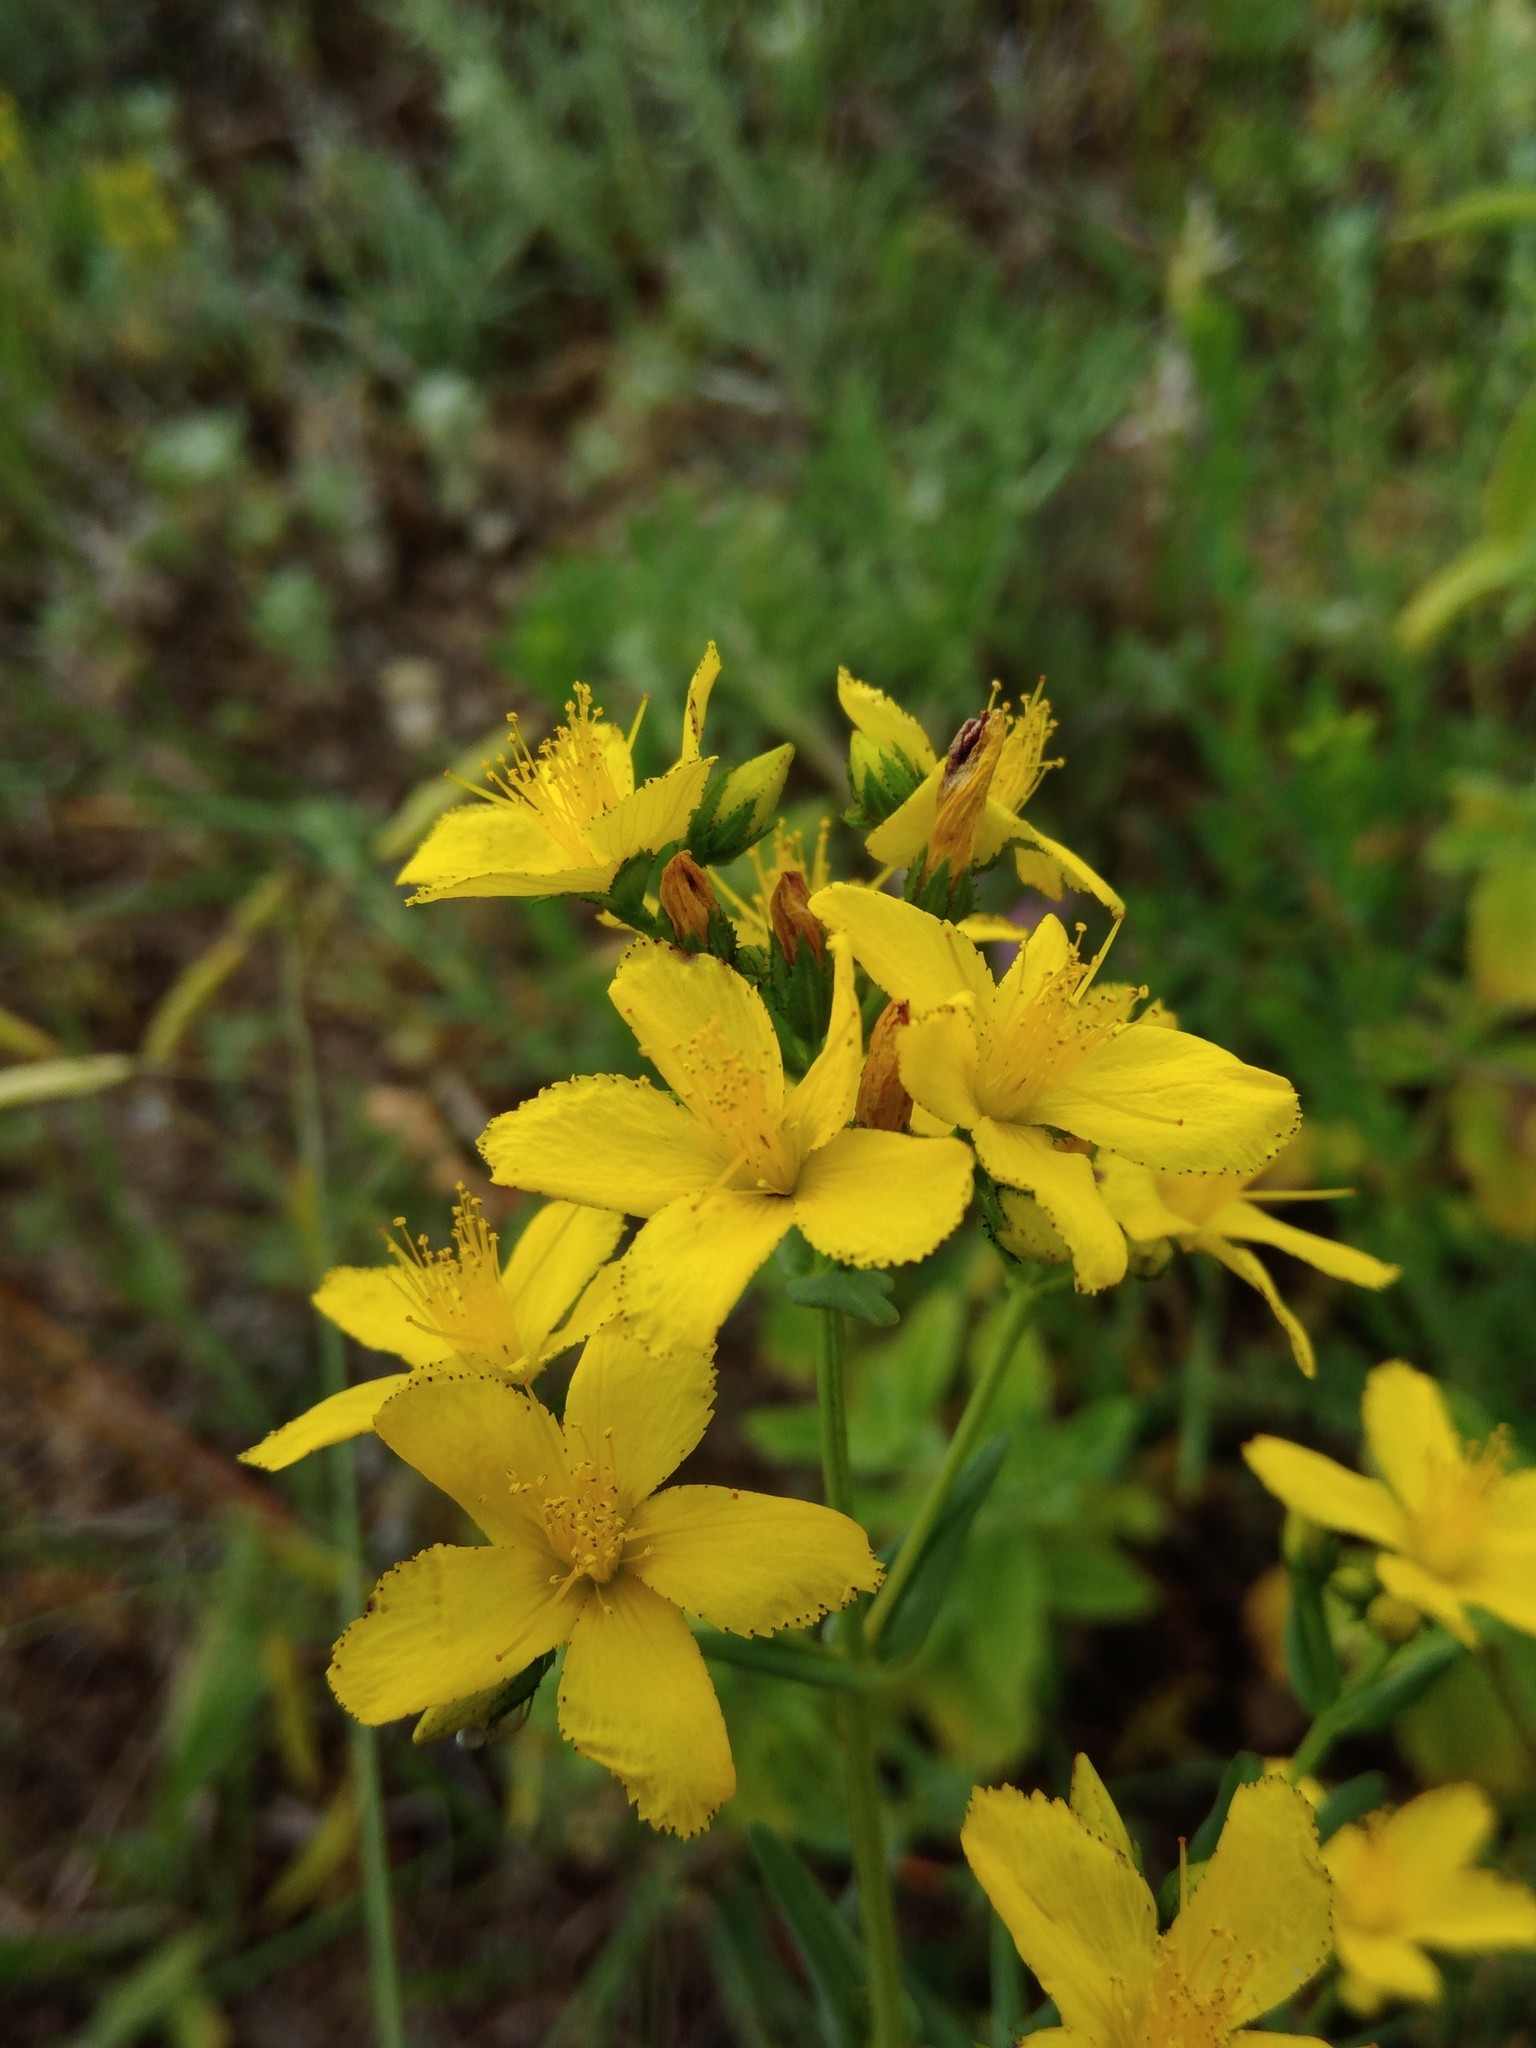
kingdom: Plantae
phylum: Tracheophyta
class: Magnoliopsida
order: Malpighiales
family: Hypericaceae
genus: Hypericum
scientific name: Hypericum elegans
